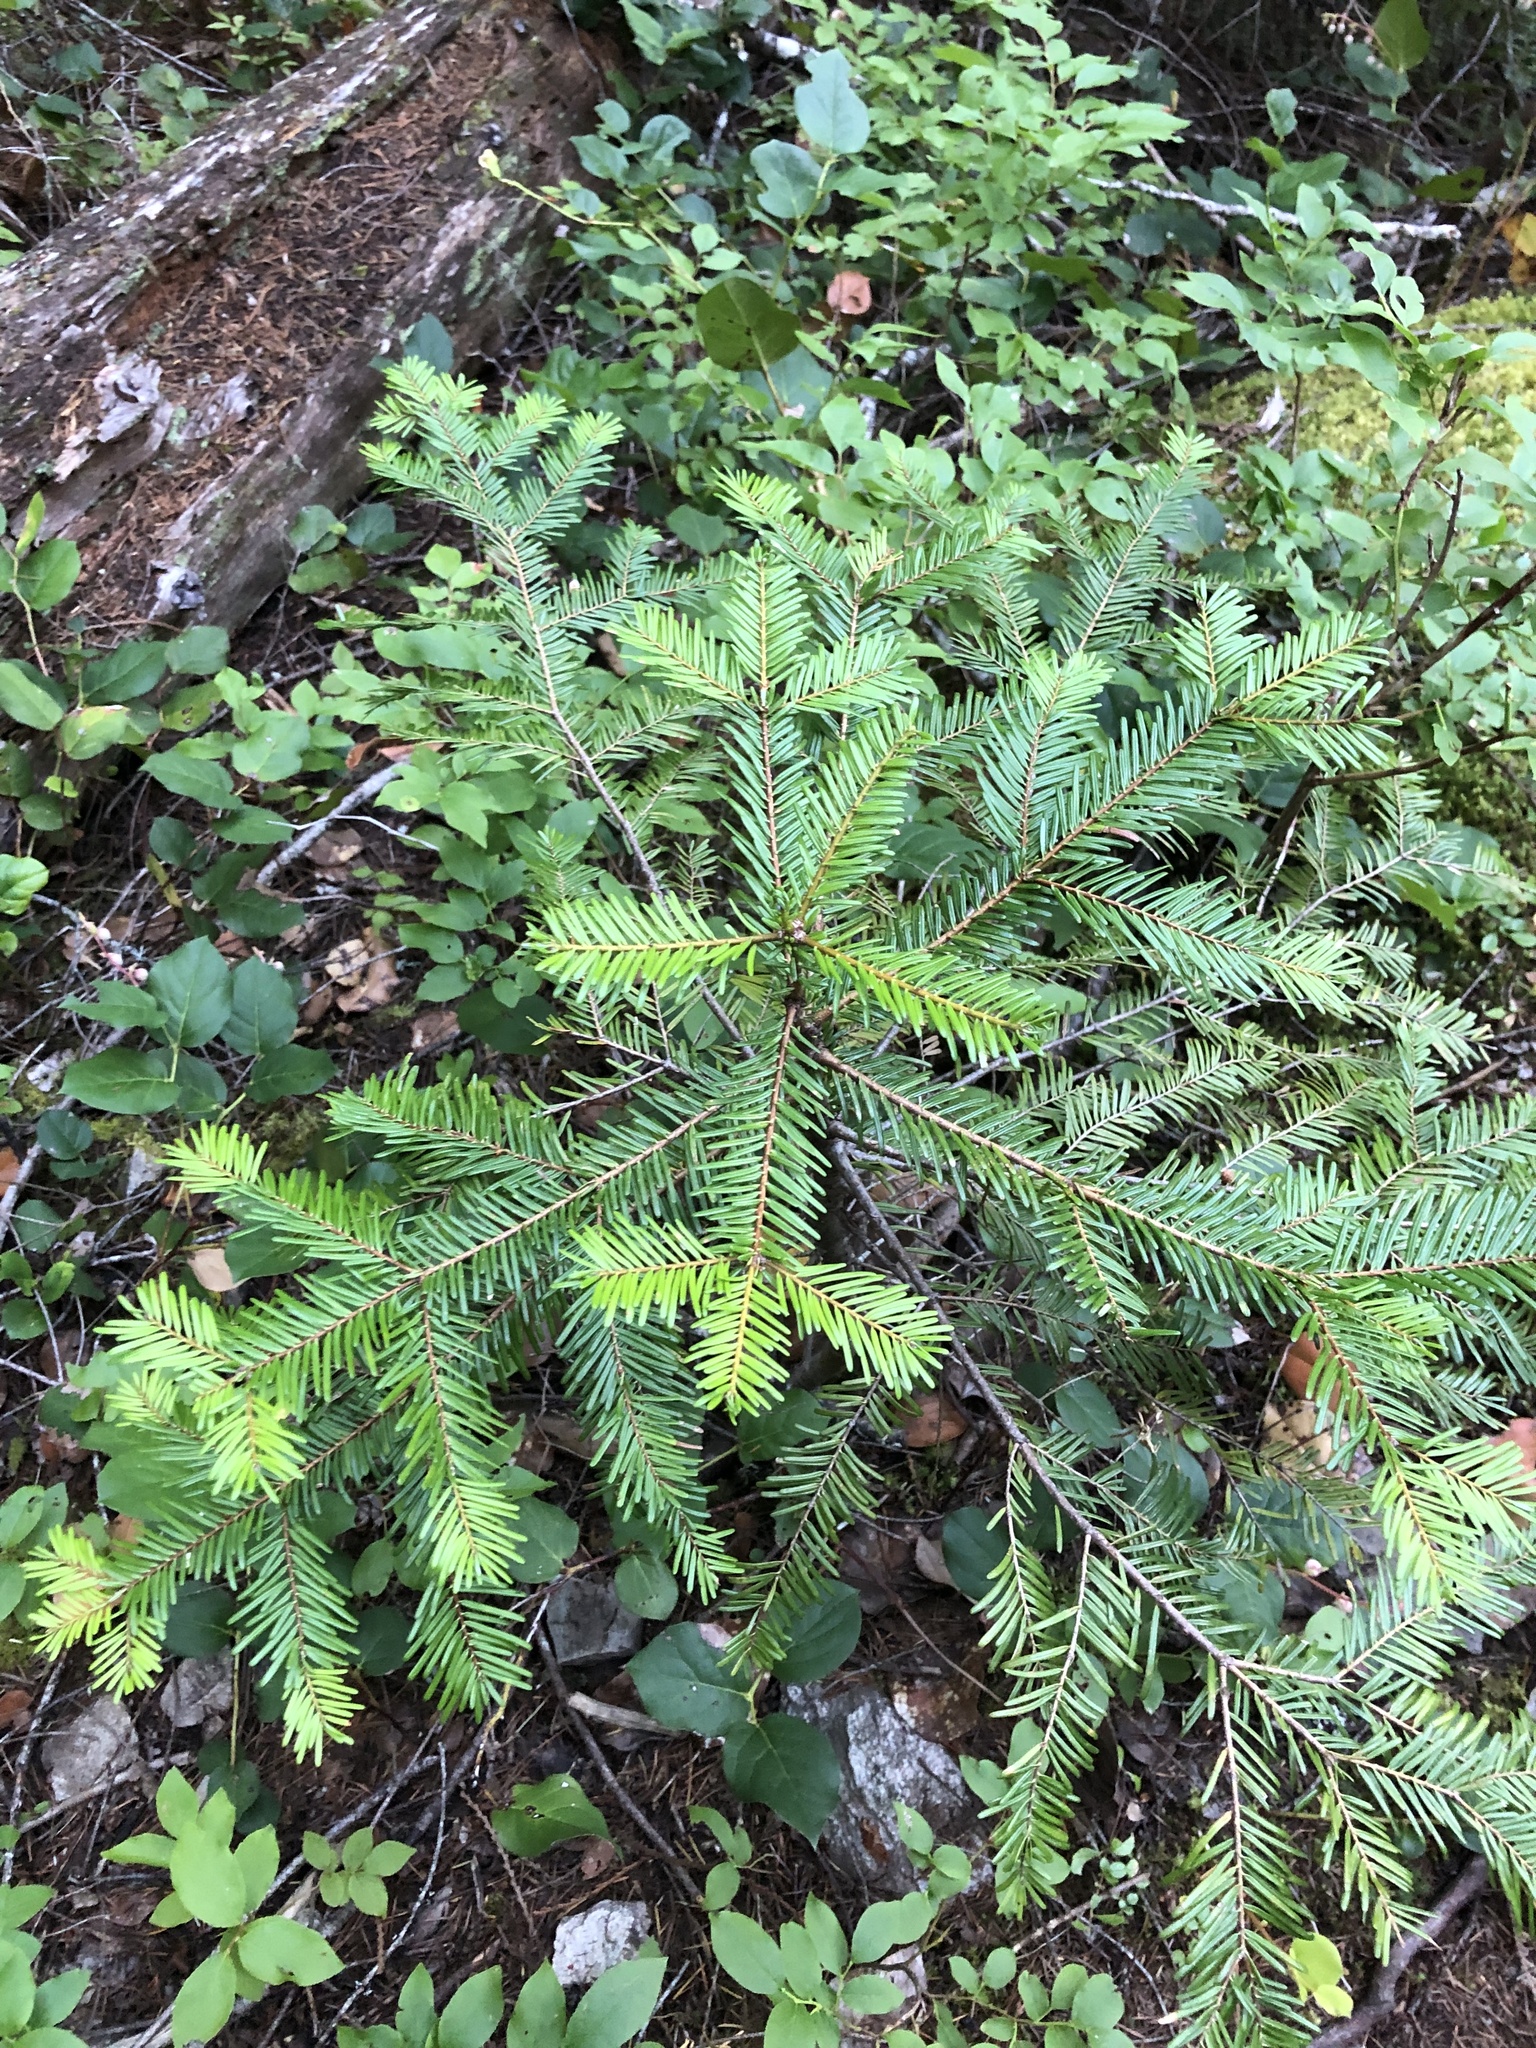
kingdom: Plantae
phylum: Tracheophyta
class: Pinopsida
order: Pinales
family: Pinaceae
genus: Abies
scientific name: Abies grandis
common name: Giant fir
